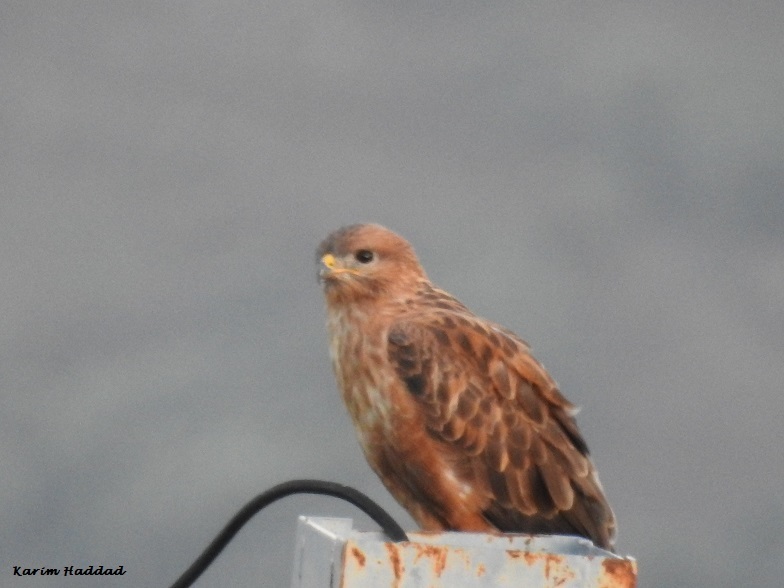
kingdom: Animalia
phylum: Chordata
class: Aves
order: Accipitriformes
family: Accipitridae
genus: Buteo
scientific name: Buteo rufinus
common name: Long-legged buzzard
